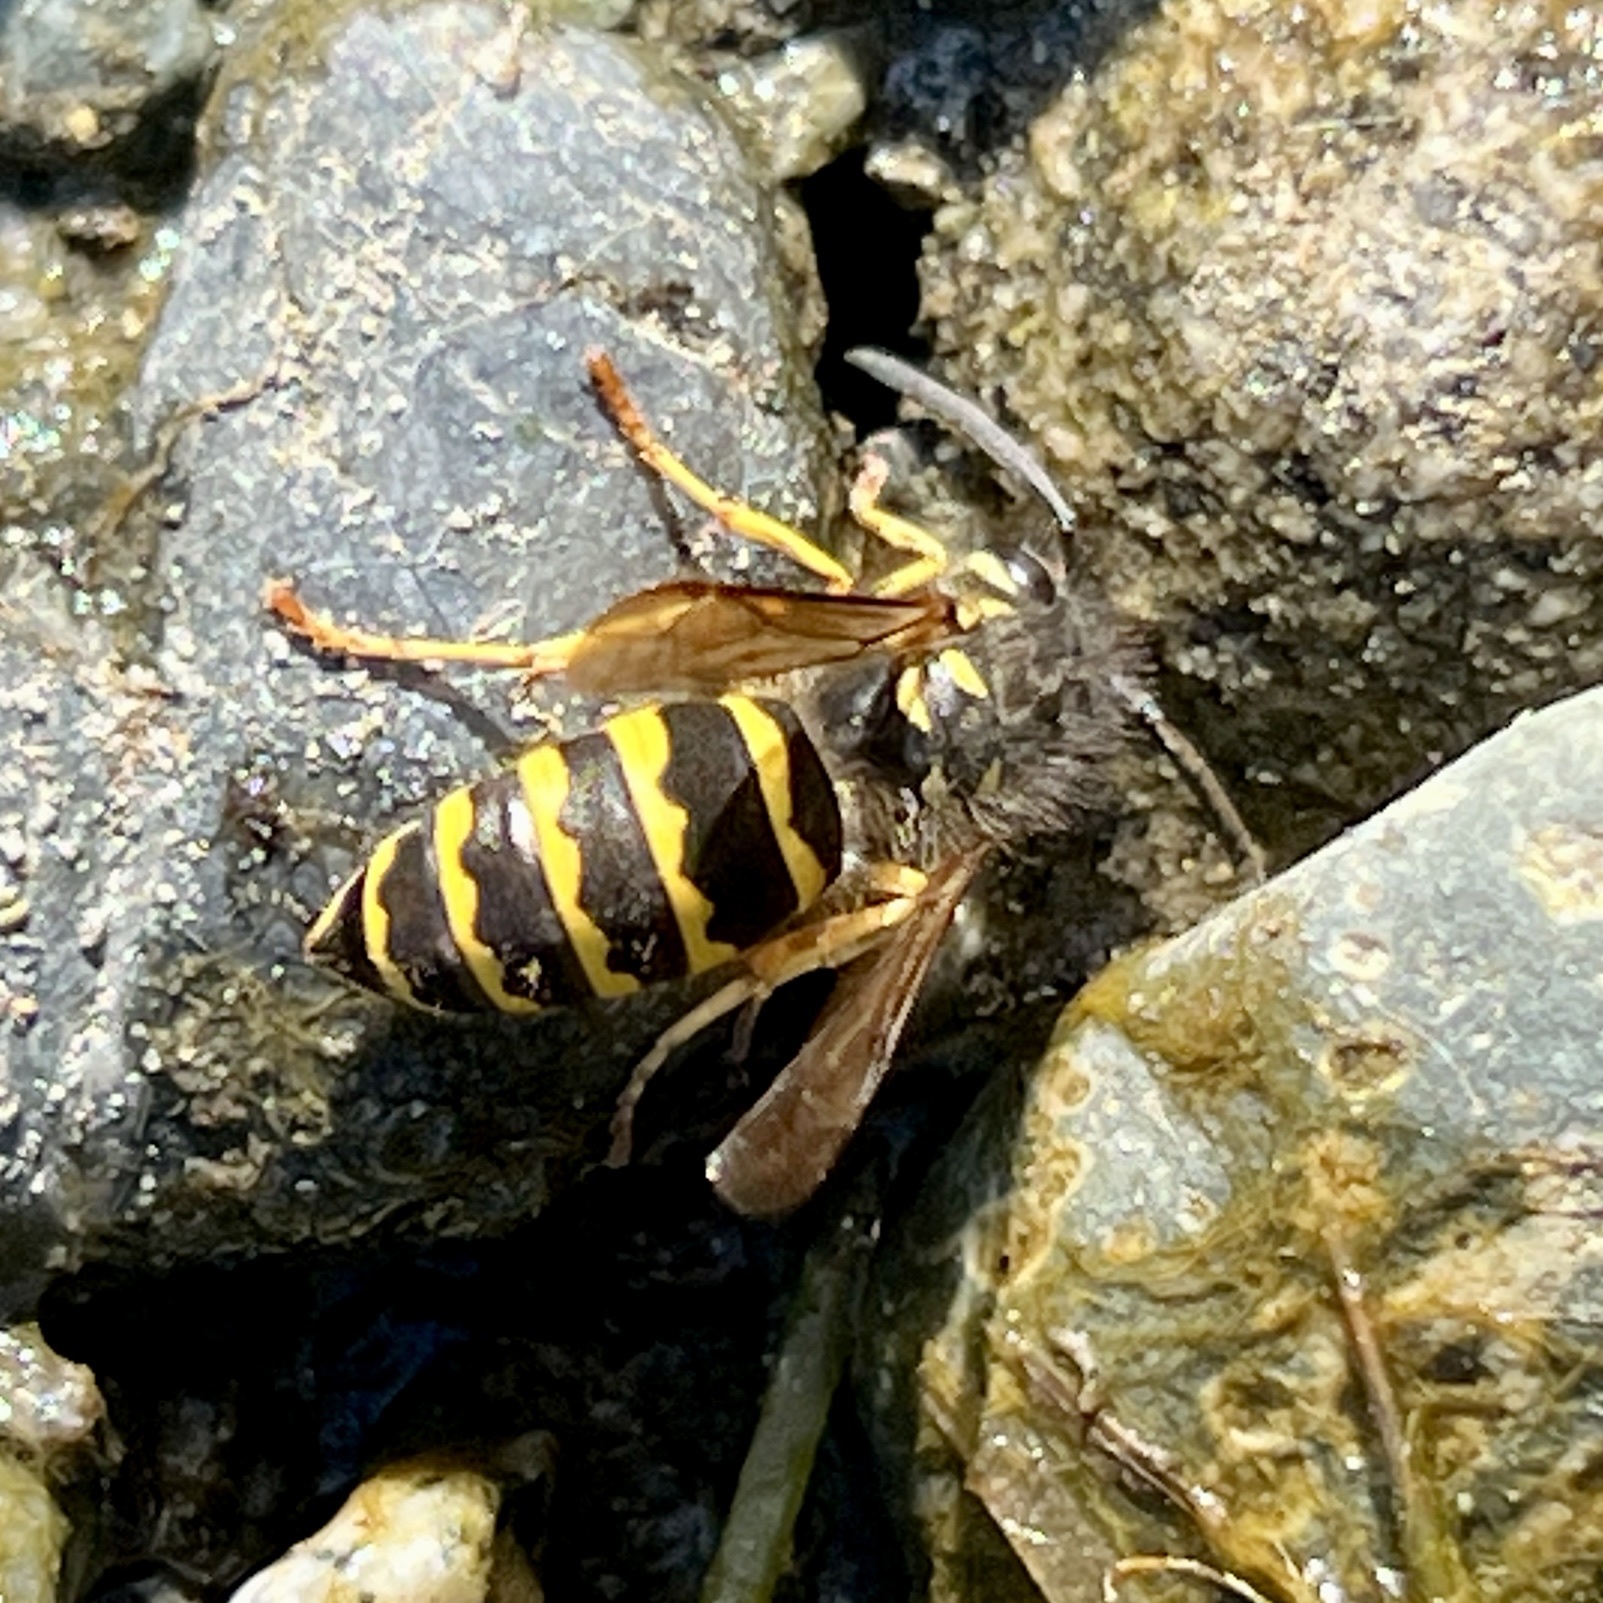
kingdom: Animalia
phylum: Arthropoda
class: Insecta
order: Hymenoptera
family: Vespidae
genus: Vespula
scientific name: Vespula alascensis
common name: Alaska yellowjacket
